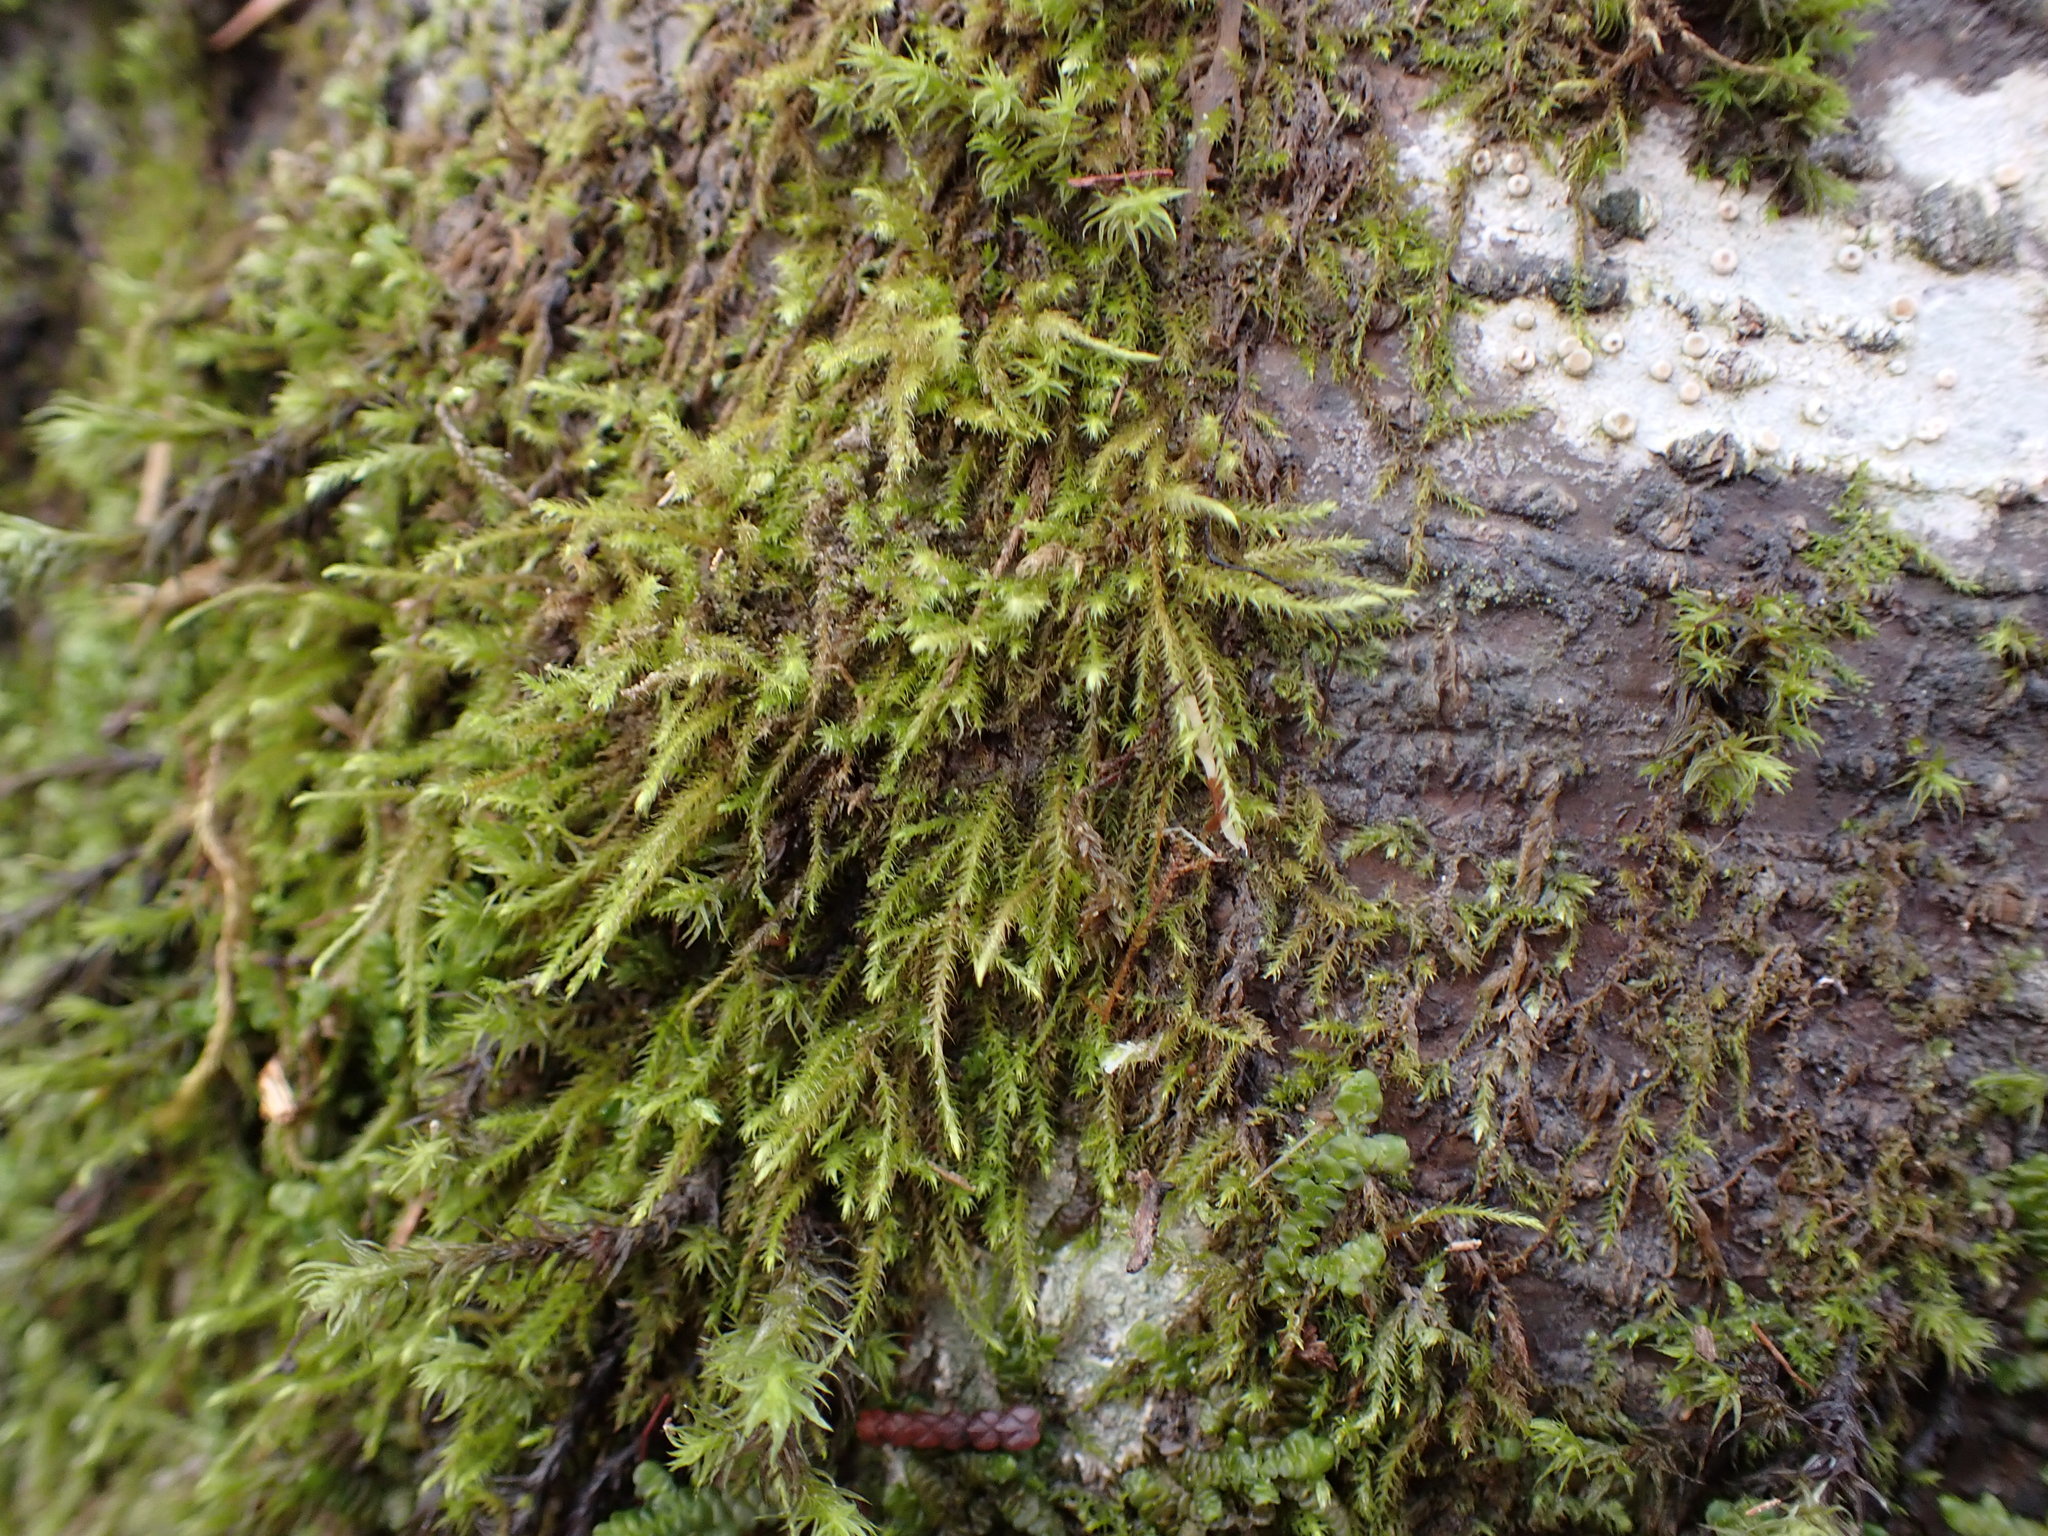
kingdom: Plantae
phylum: Bryophyta
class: Bryopsida
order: Hypnales
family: Lembophyllaceae
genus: Pseudisothecium
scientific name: Pseudisothecium stoloniferum
